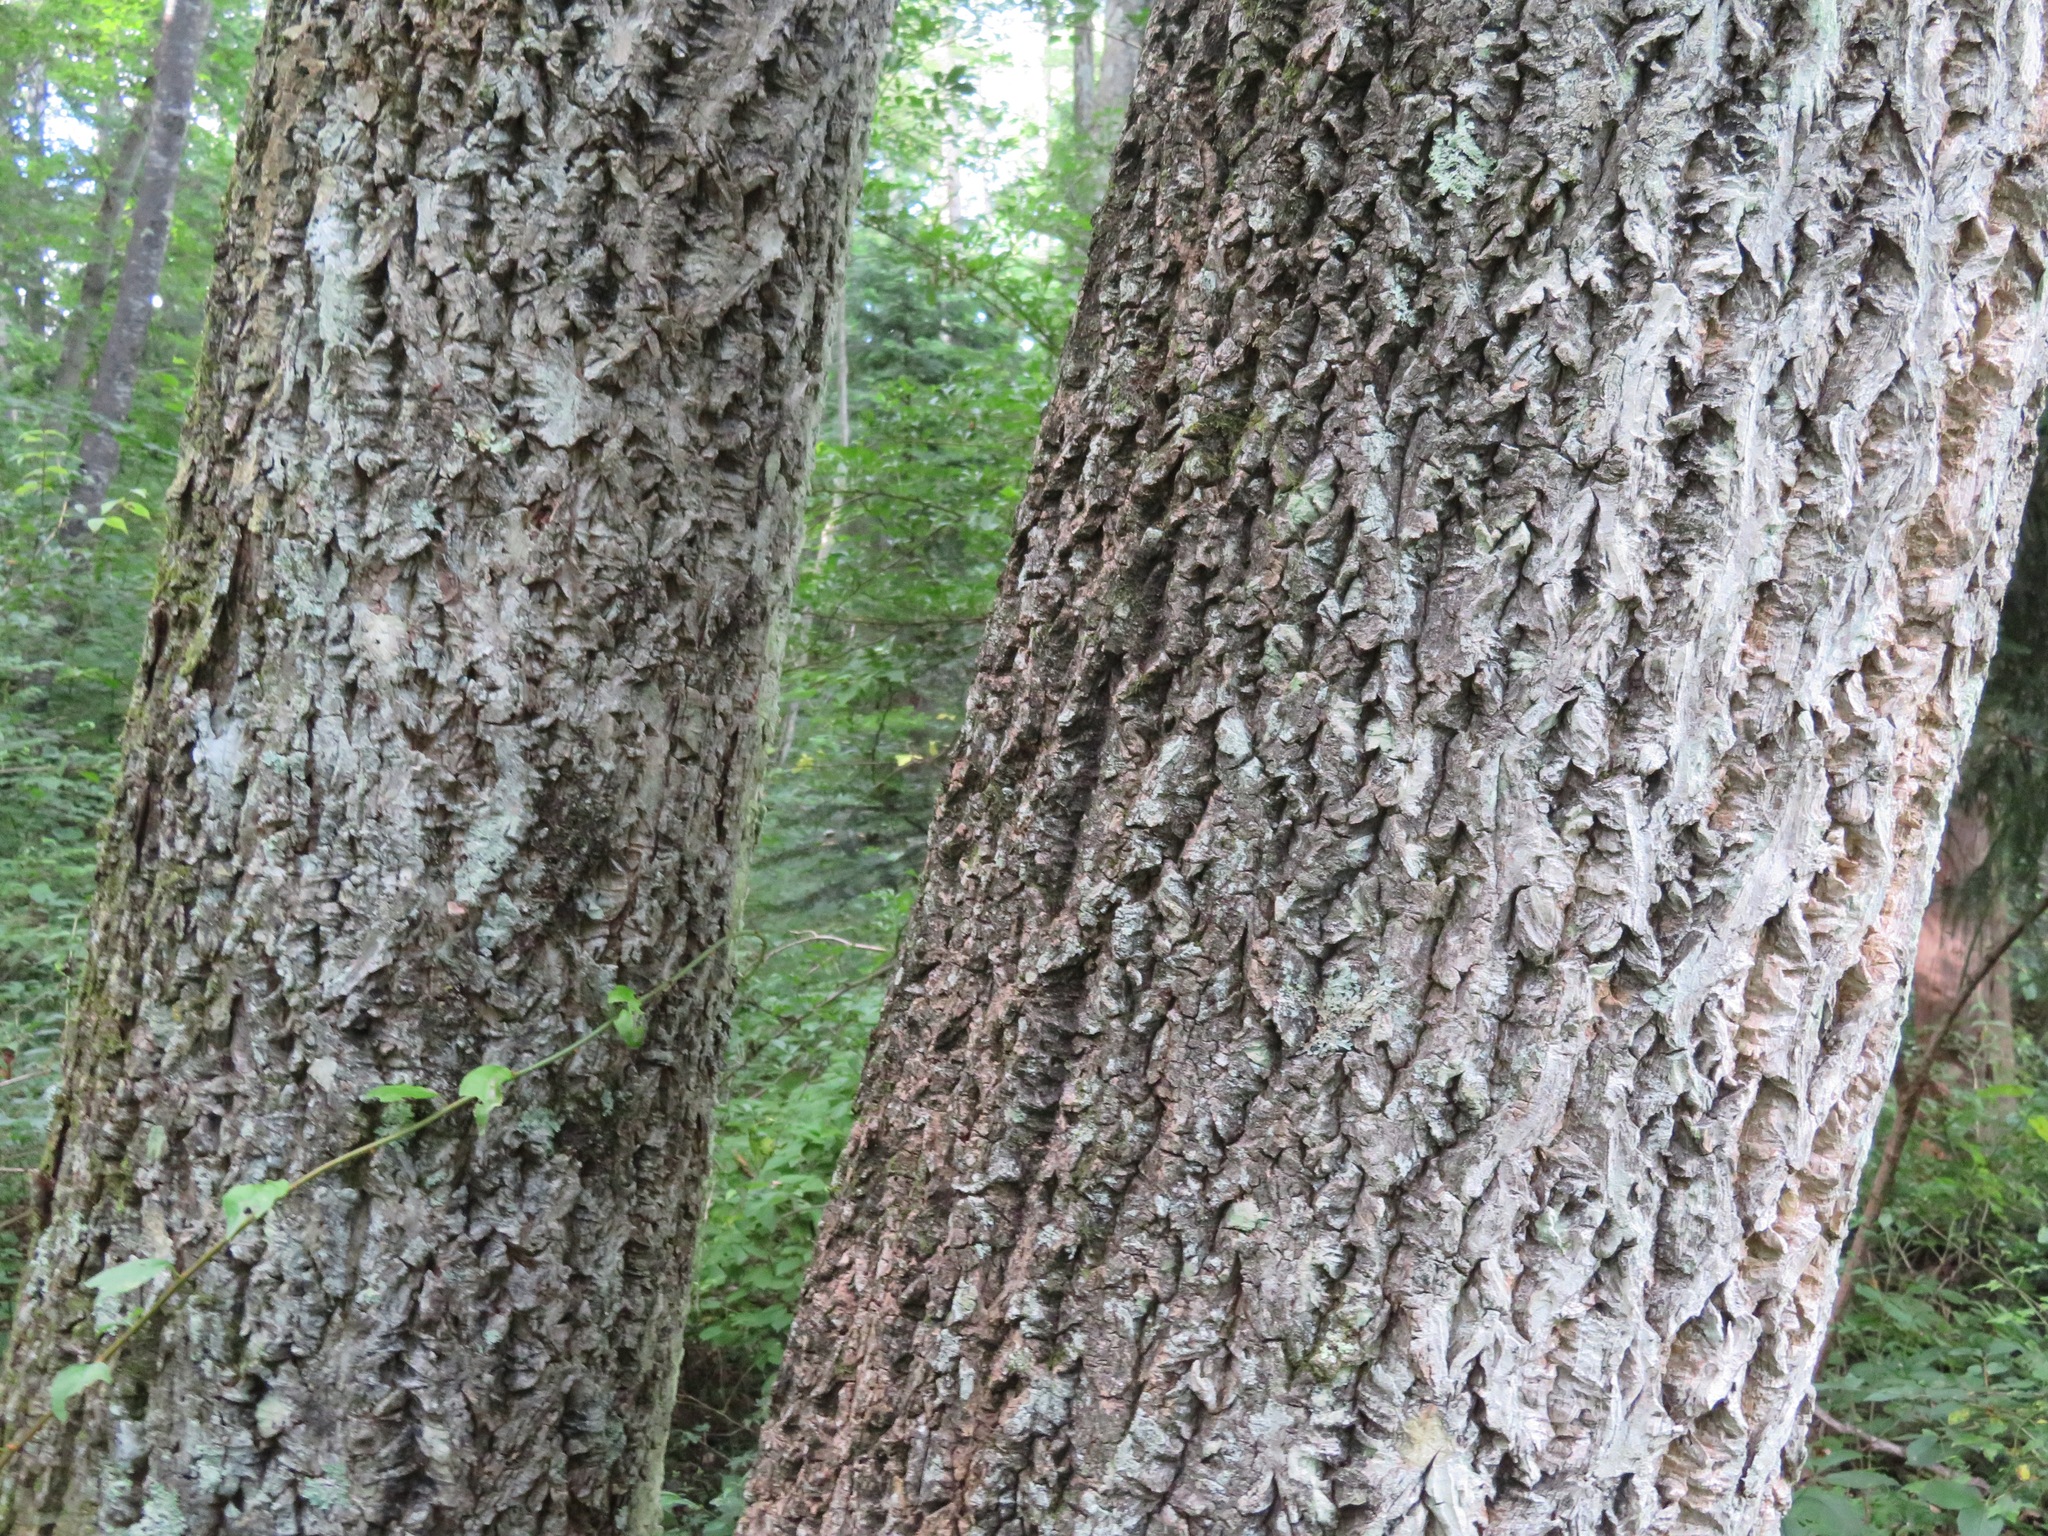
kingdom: Plantae
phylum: Tracheophyta
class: Magnoliopsida
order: Sapindales
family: Rutaceae
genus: Phellodendron
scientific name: Phellodendron amurense
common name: Amur corktree
